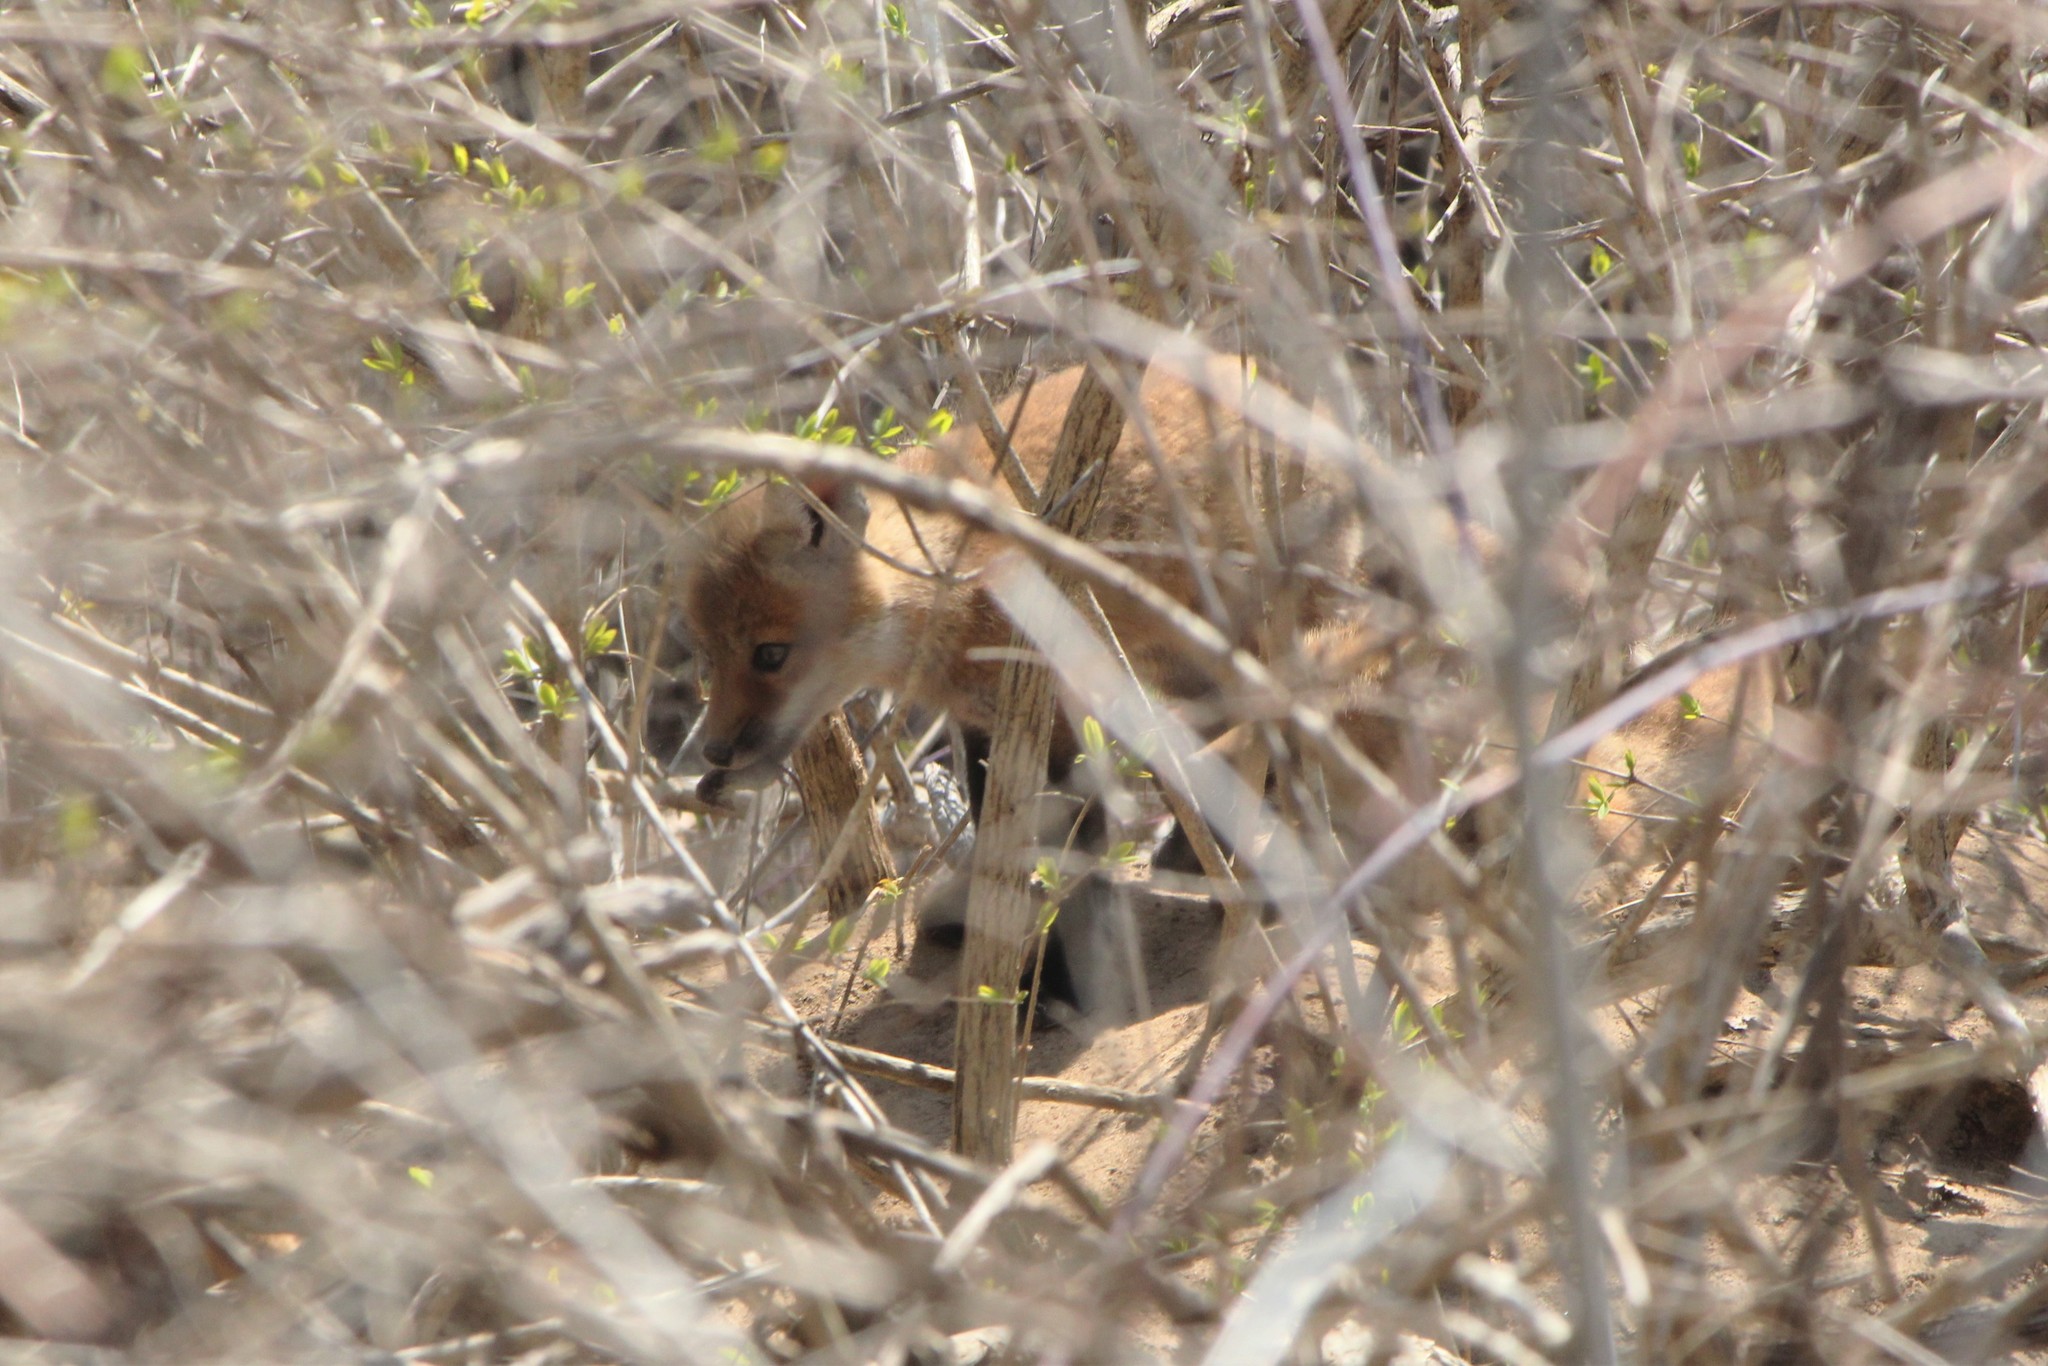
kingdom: Animalia
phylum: Chordata
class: Mammalia
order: Carnivora
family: Canidae
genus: Vulpes
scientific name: Vulpes vulpes
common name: Red fox
